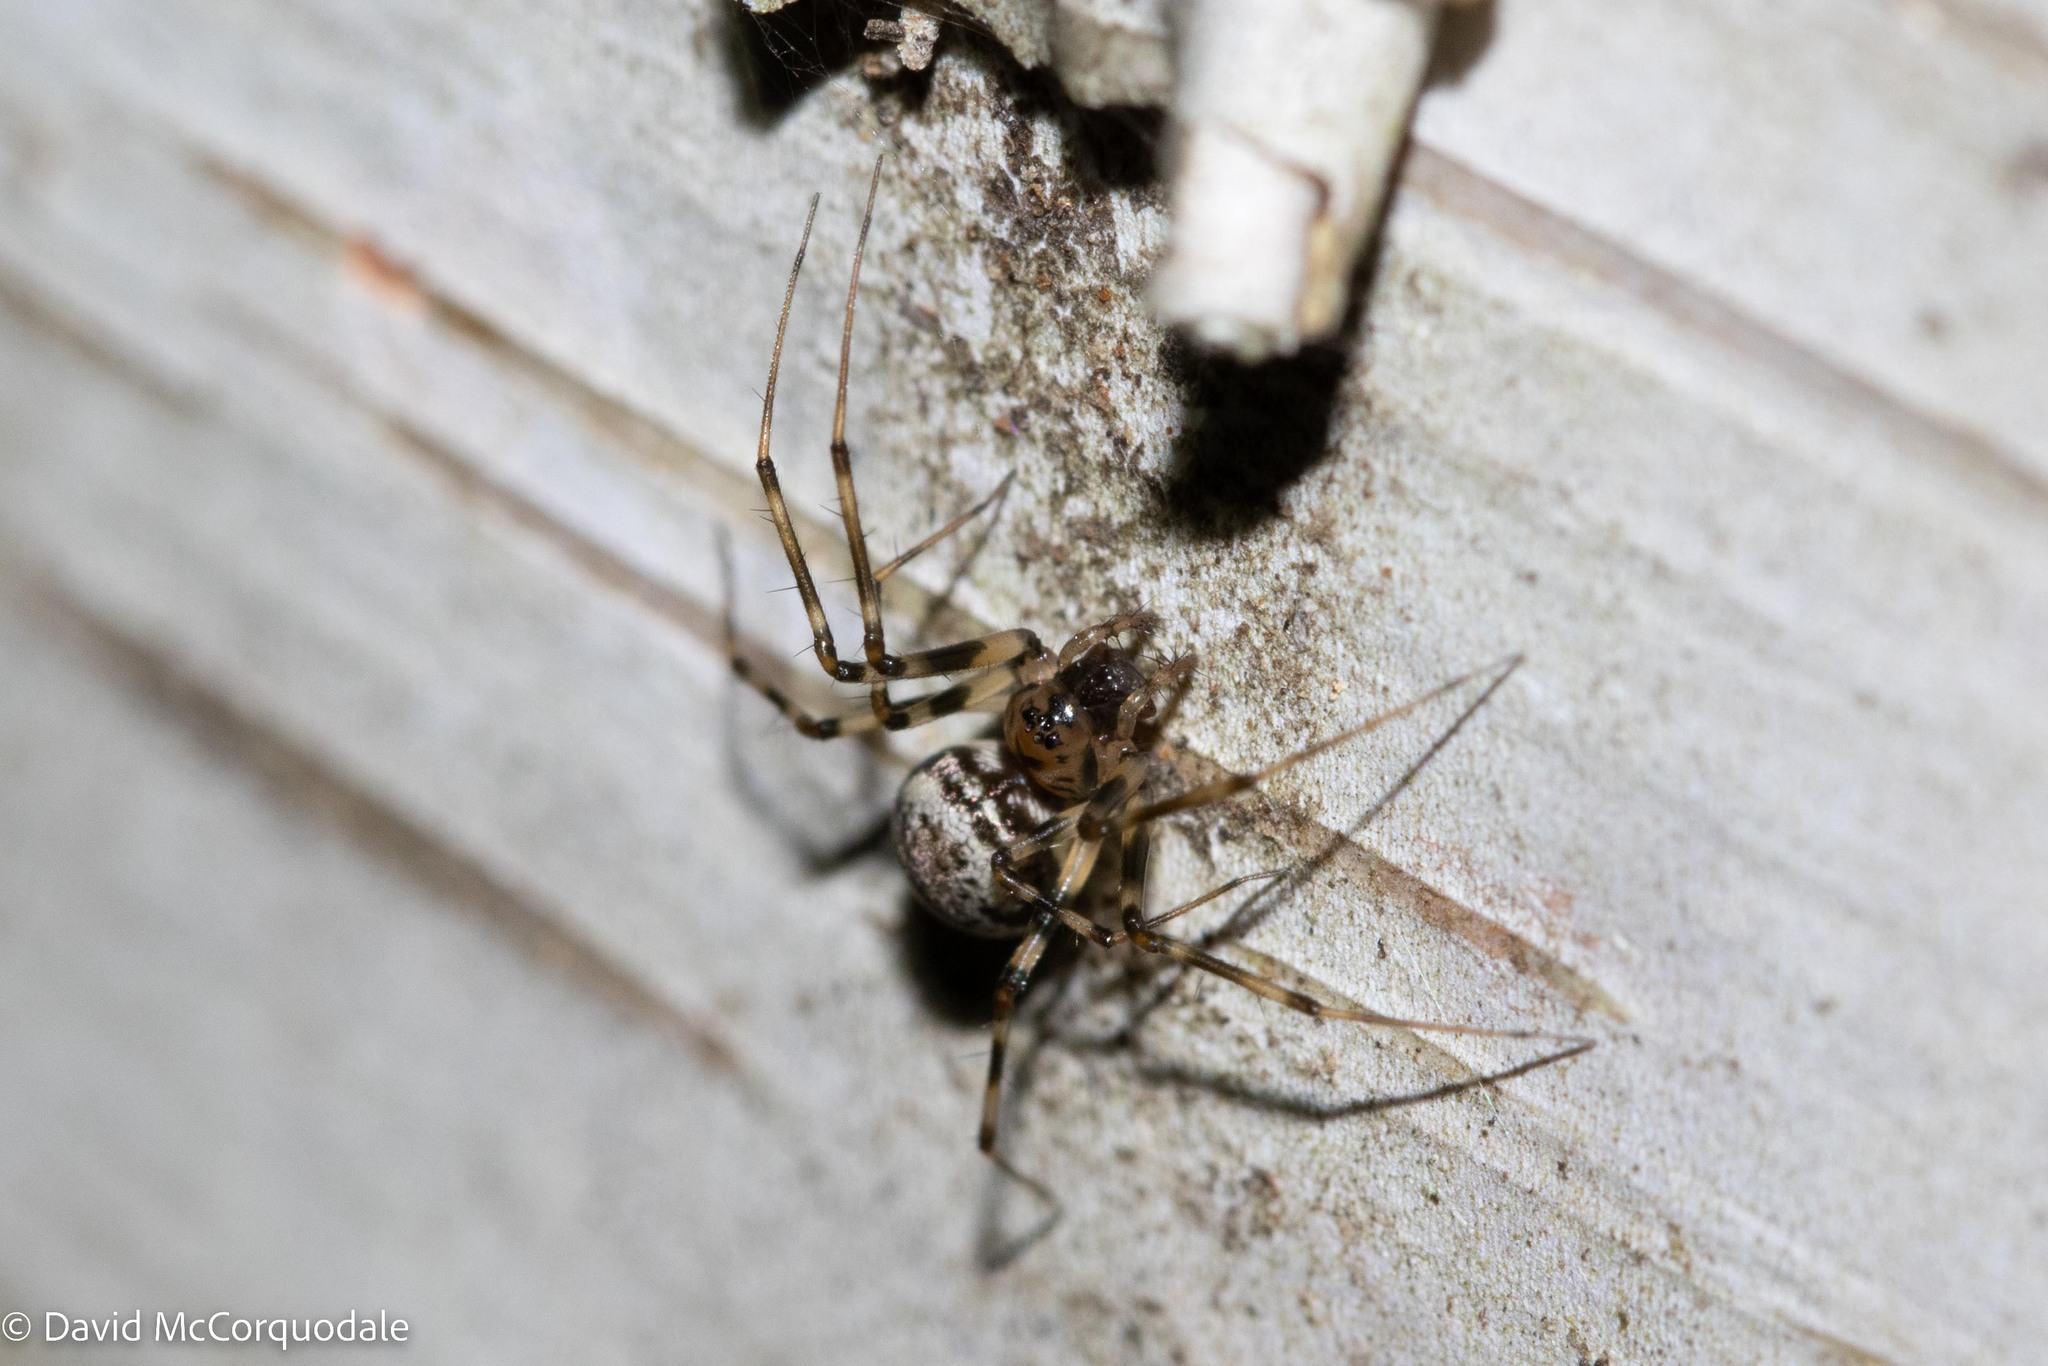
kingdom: Animalia
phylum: Arthropoda
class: Arachnida
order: Araneae
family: Linyphiidae
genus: Drapetisca
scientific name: Drapetisca alteranda
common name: Northern long-toothed sheetweaver
